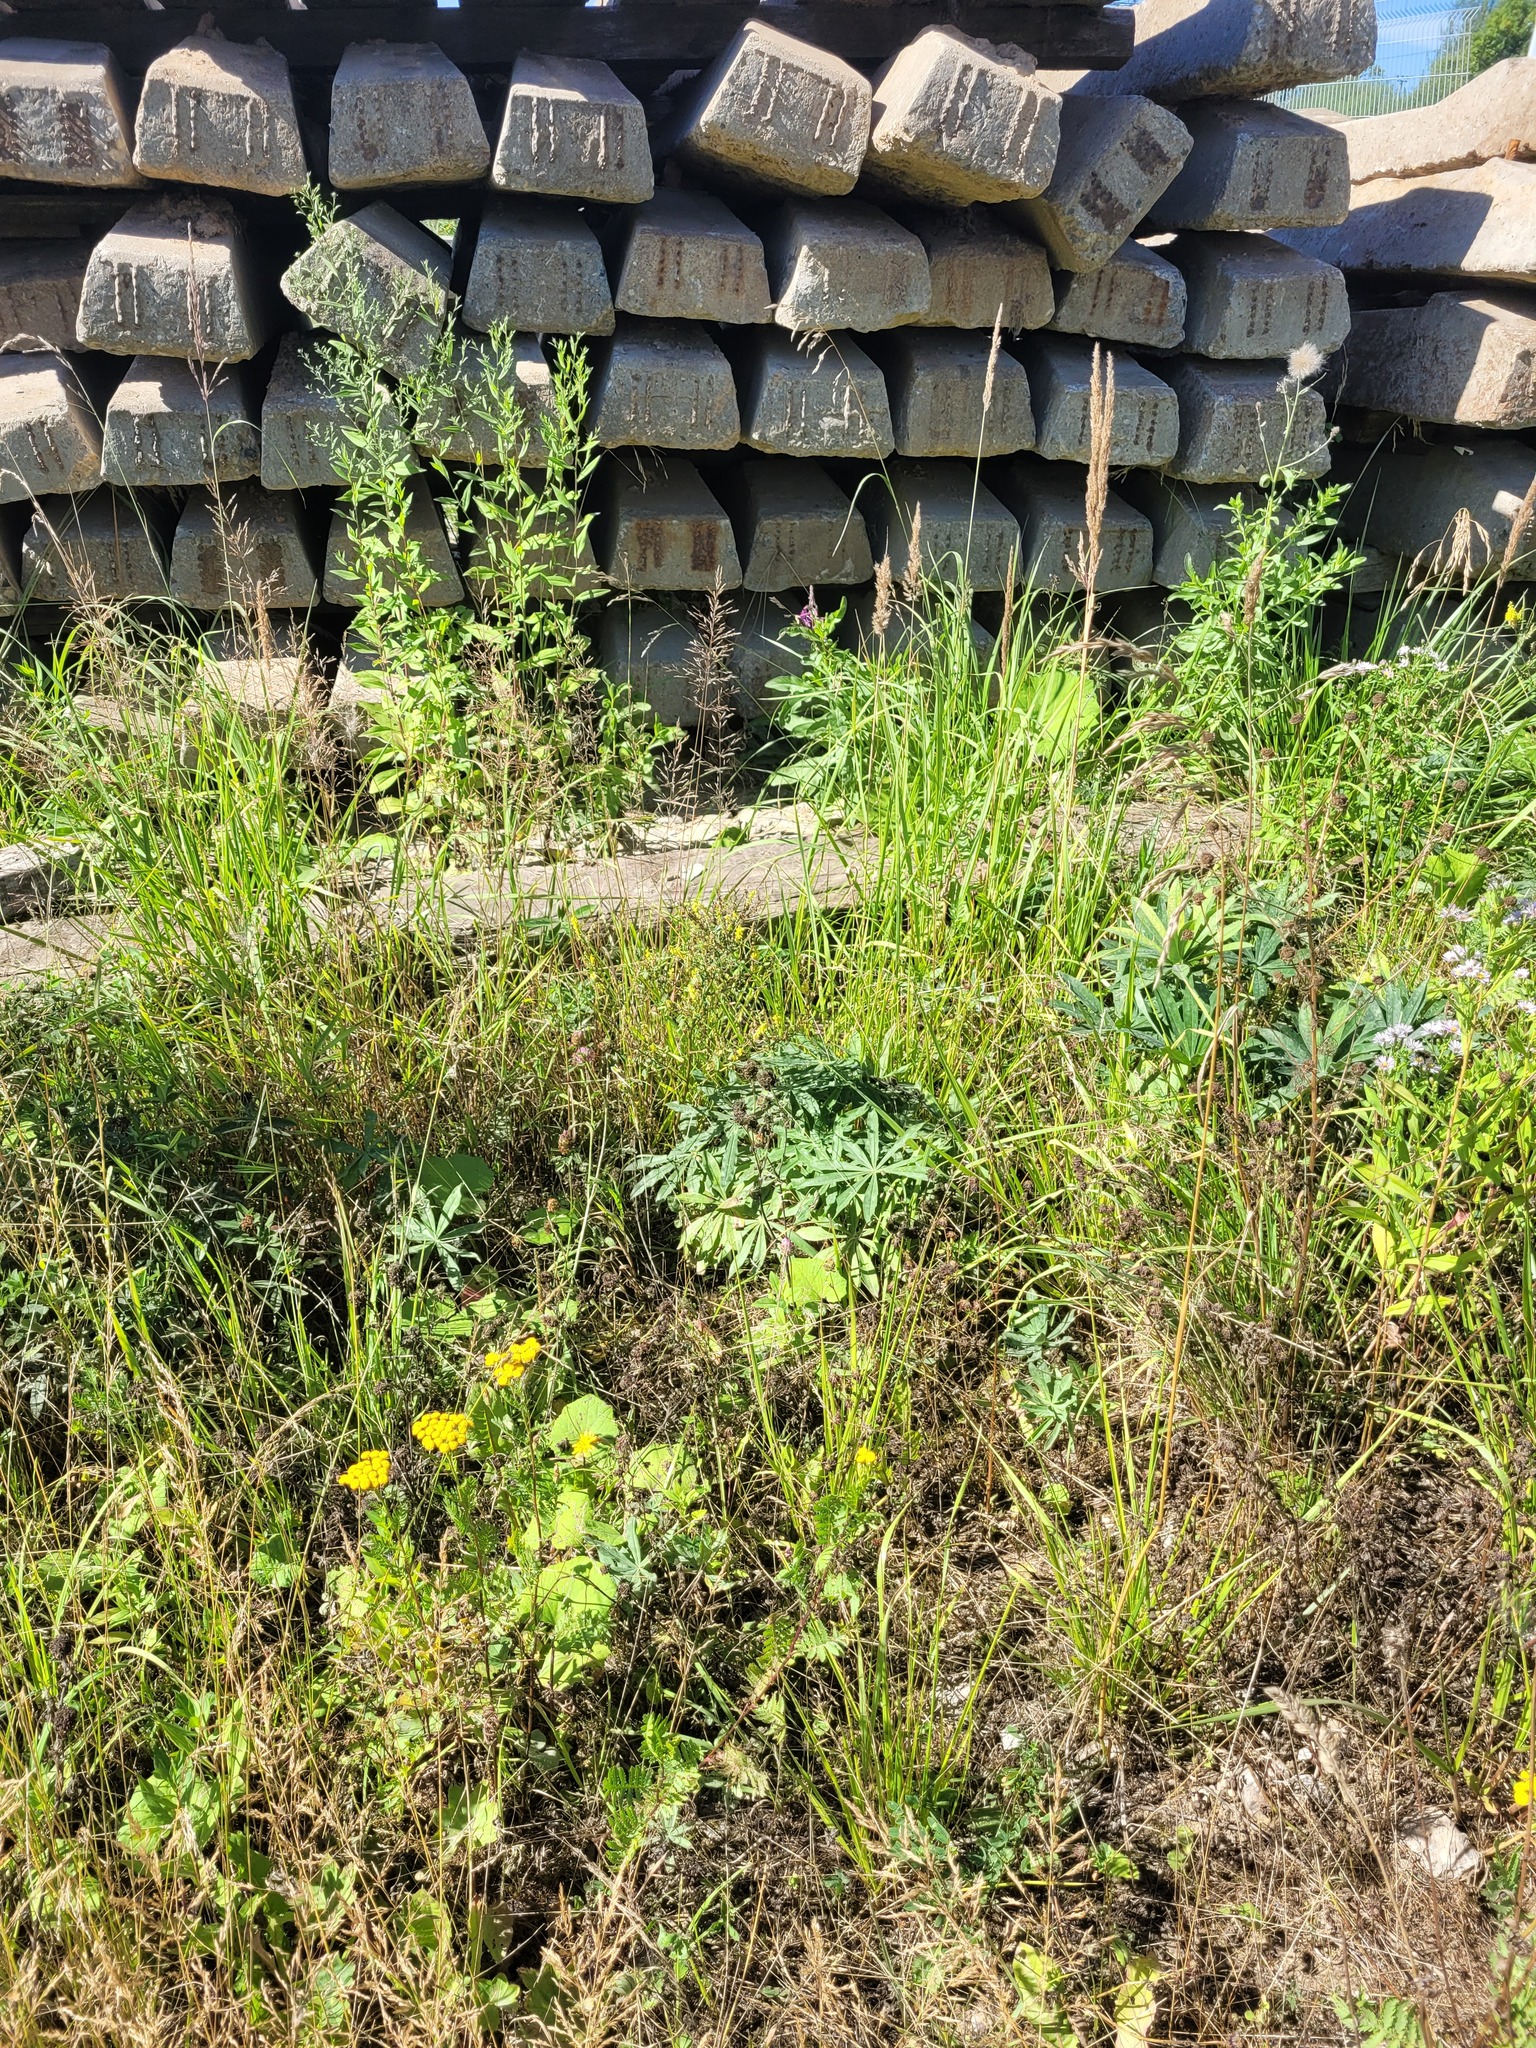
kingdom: Plantae
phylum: Tracheophyta
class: Magnoliopsida
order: Fabales
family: Fabaceae
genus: Lupinus
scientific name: Lupinus polyphyllus
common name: Garden lupin
